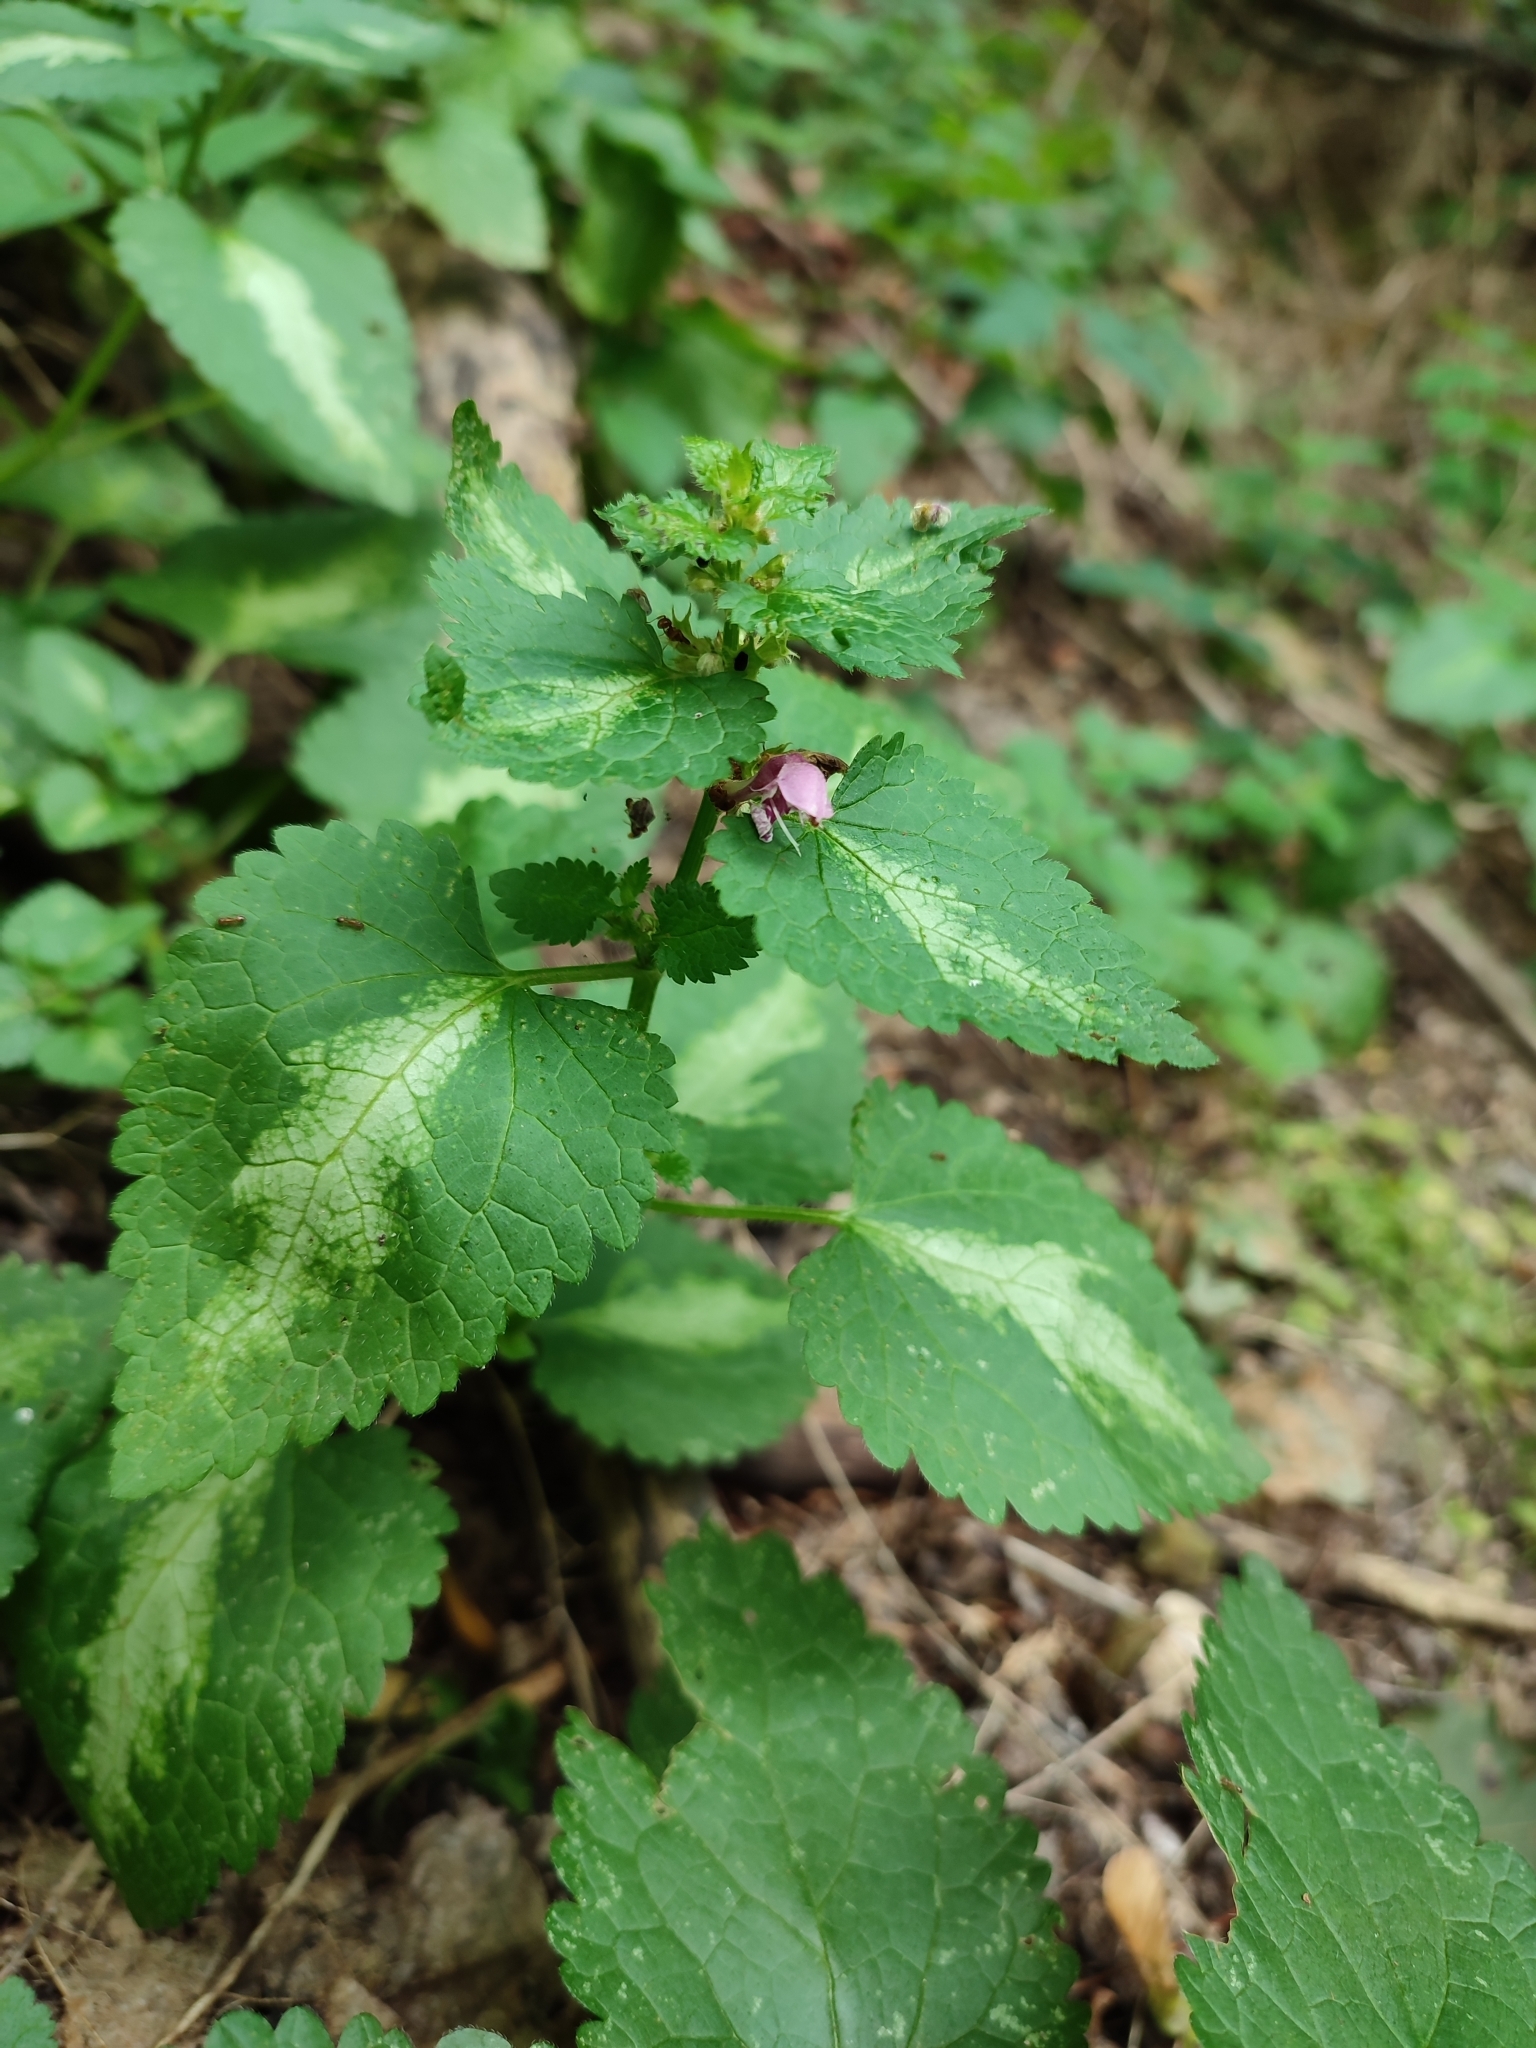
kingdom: Plantae
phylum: Tracheophyta
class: Magnoliopsida
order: Lamiales
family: Lamiaceae
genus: Lamium
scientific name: Lamium maculatum
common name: Spotted dead-nettle
